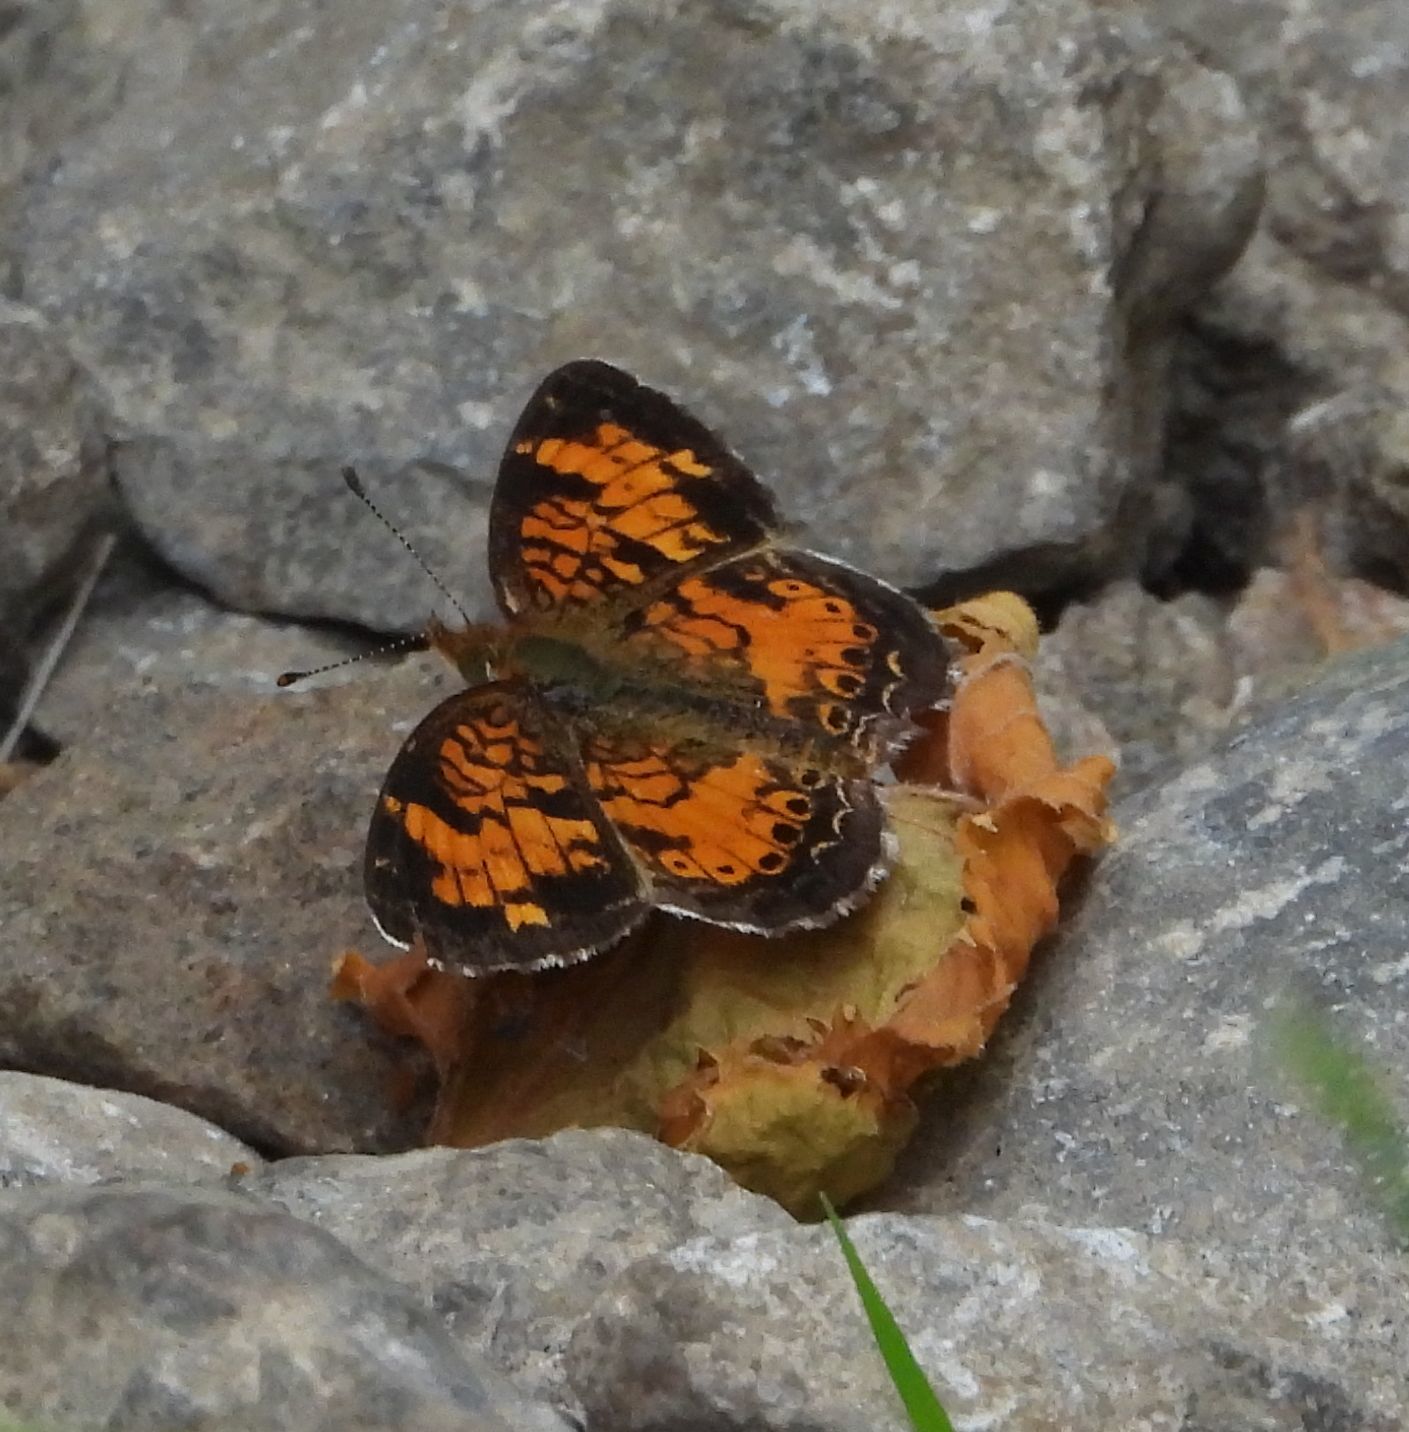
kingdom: Animalia
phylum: Arthropoda
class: Insecta
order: Lepidoptera
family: Nymphalidae
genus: Phyciodes
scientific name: Phyciodes tharos
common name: Pearl crescent
